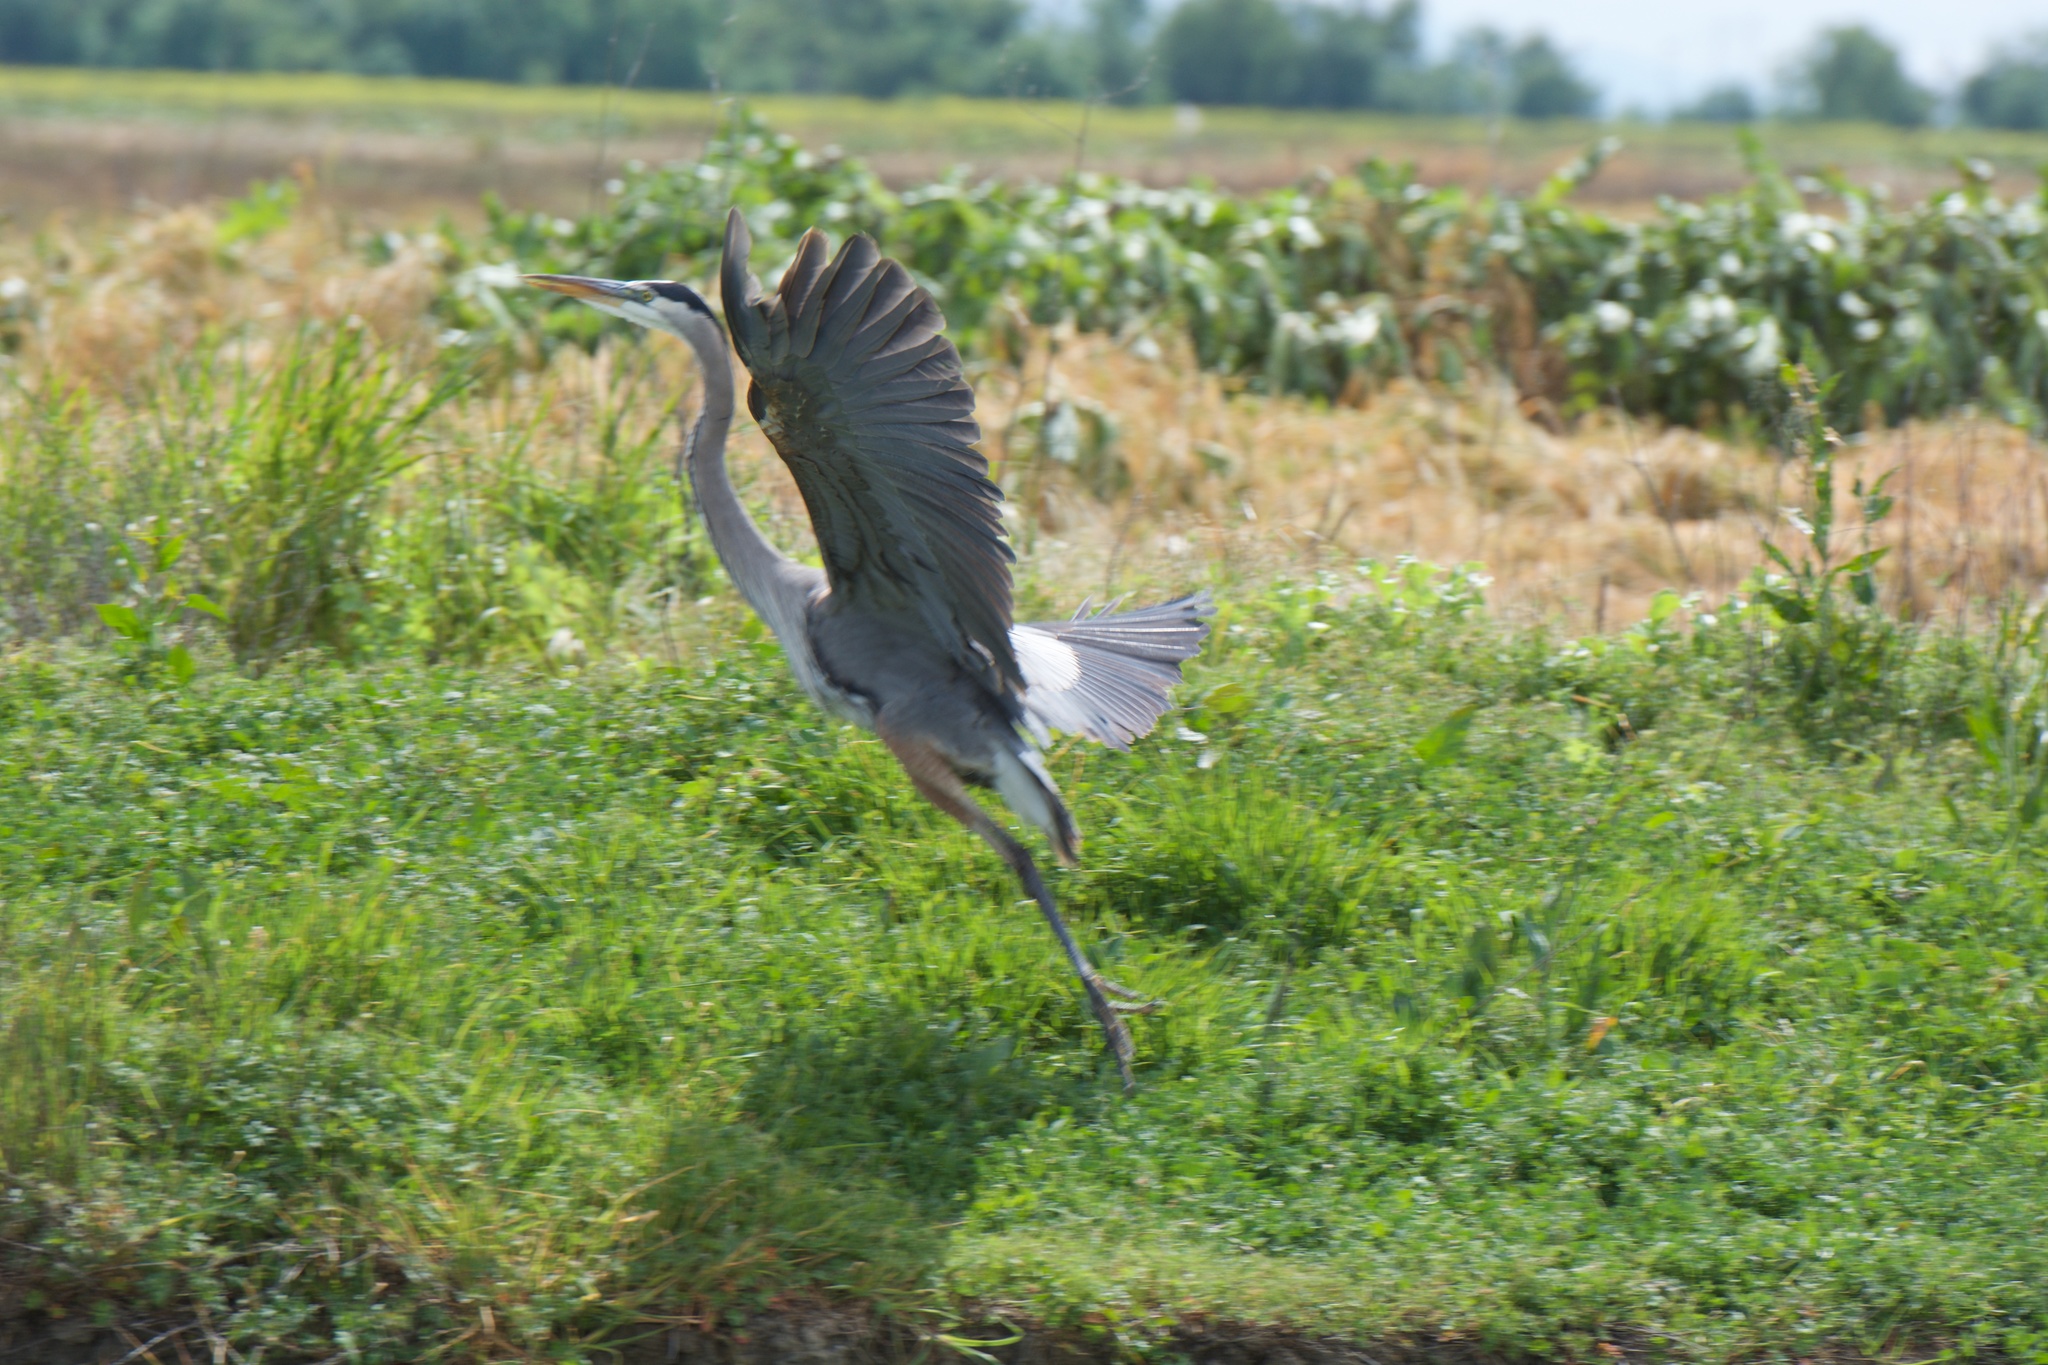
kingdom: Animalia
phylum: Chordata
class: Aves
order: Pelecaniformes
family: Ardeidae
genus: Ardea
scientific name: Ardea herodias
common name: Great blue heron
